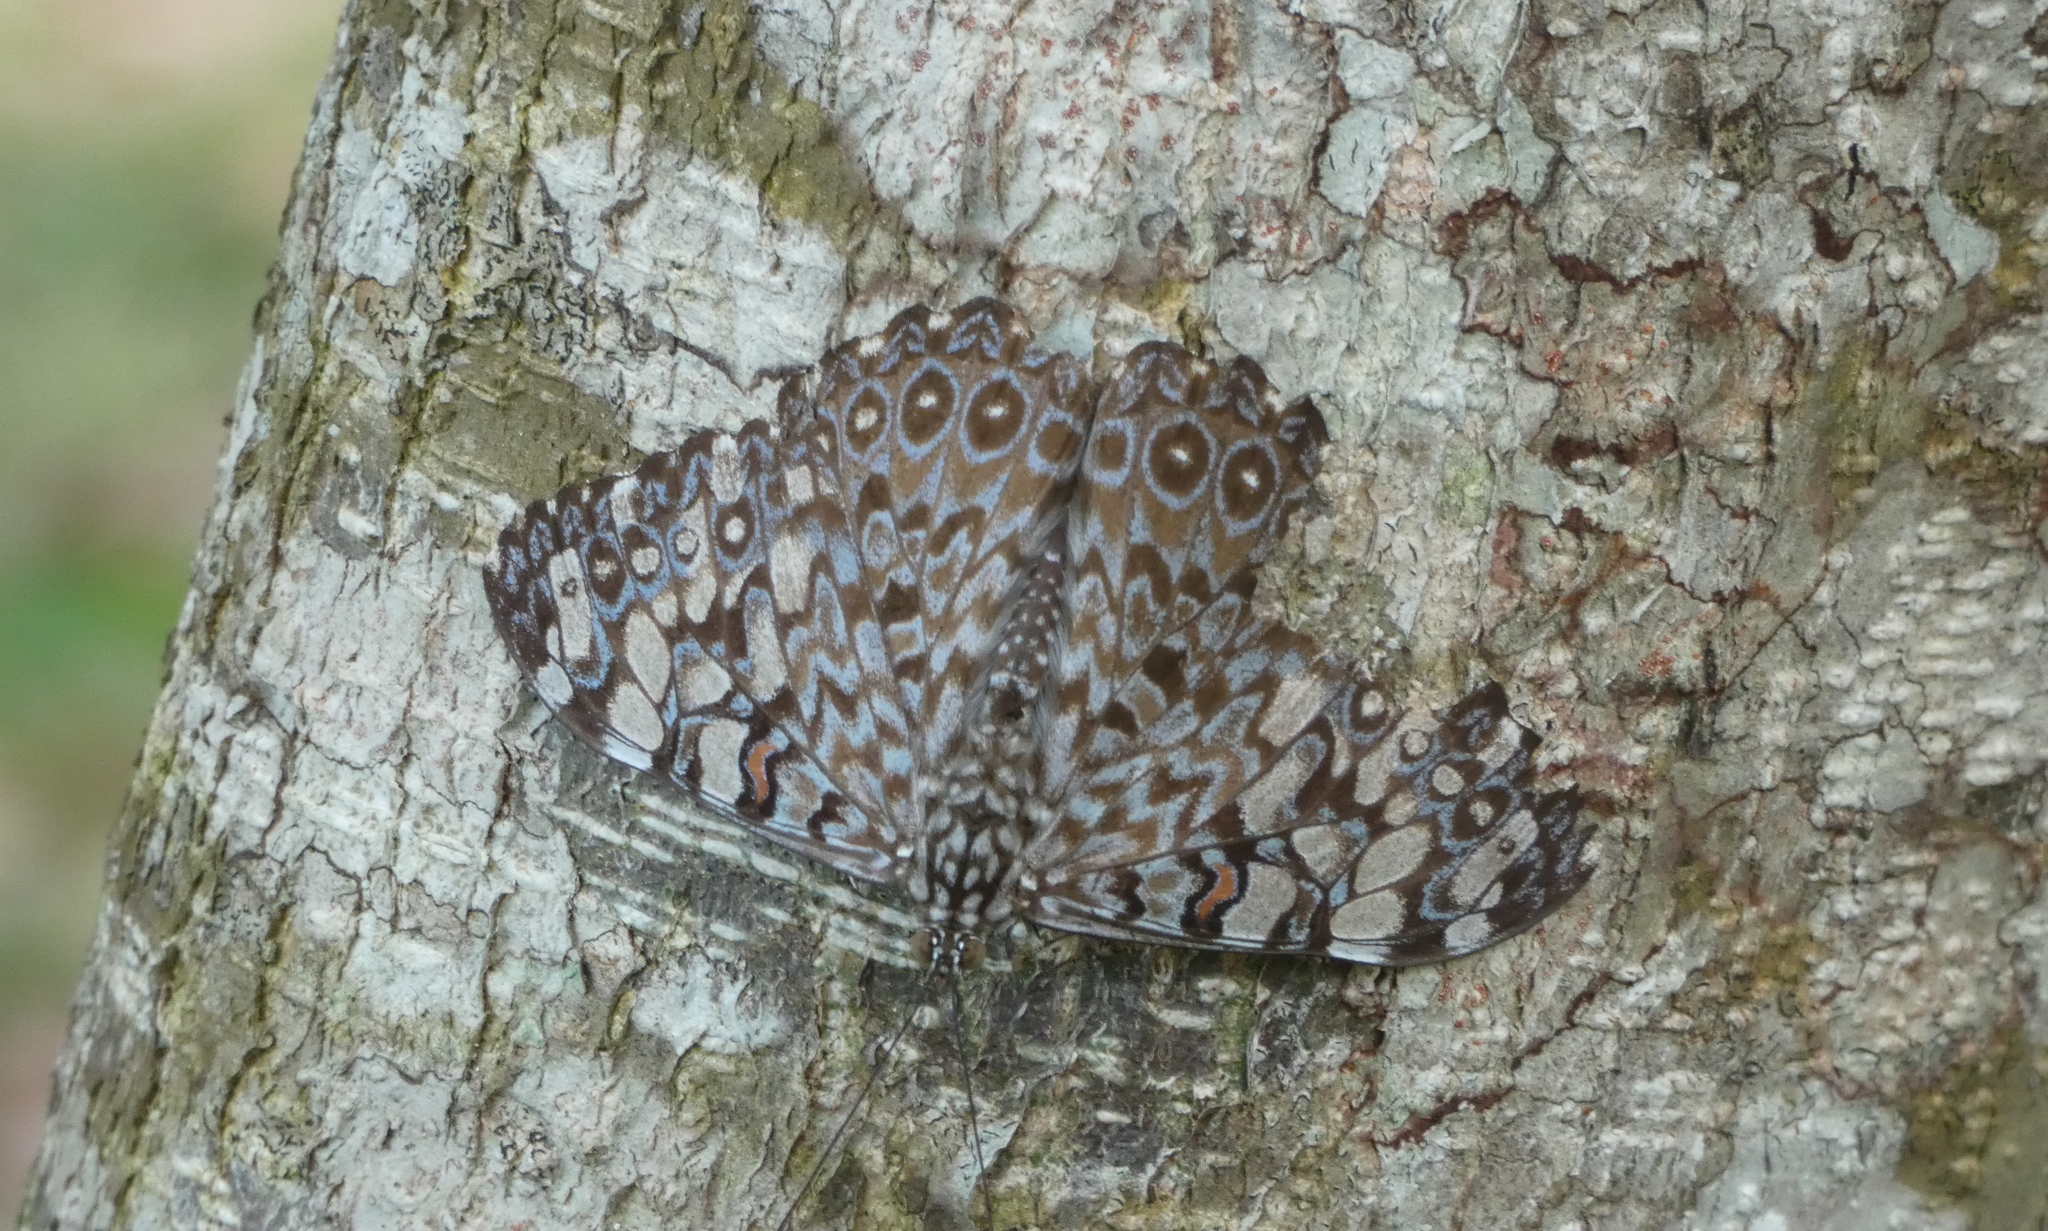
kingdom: Animalia
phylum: Arthropoda
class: Insecta
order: Lepidoptera
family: Nymphalidae
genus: Hamadryas
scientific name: Hamadryas feronia
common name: Variable cracker
